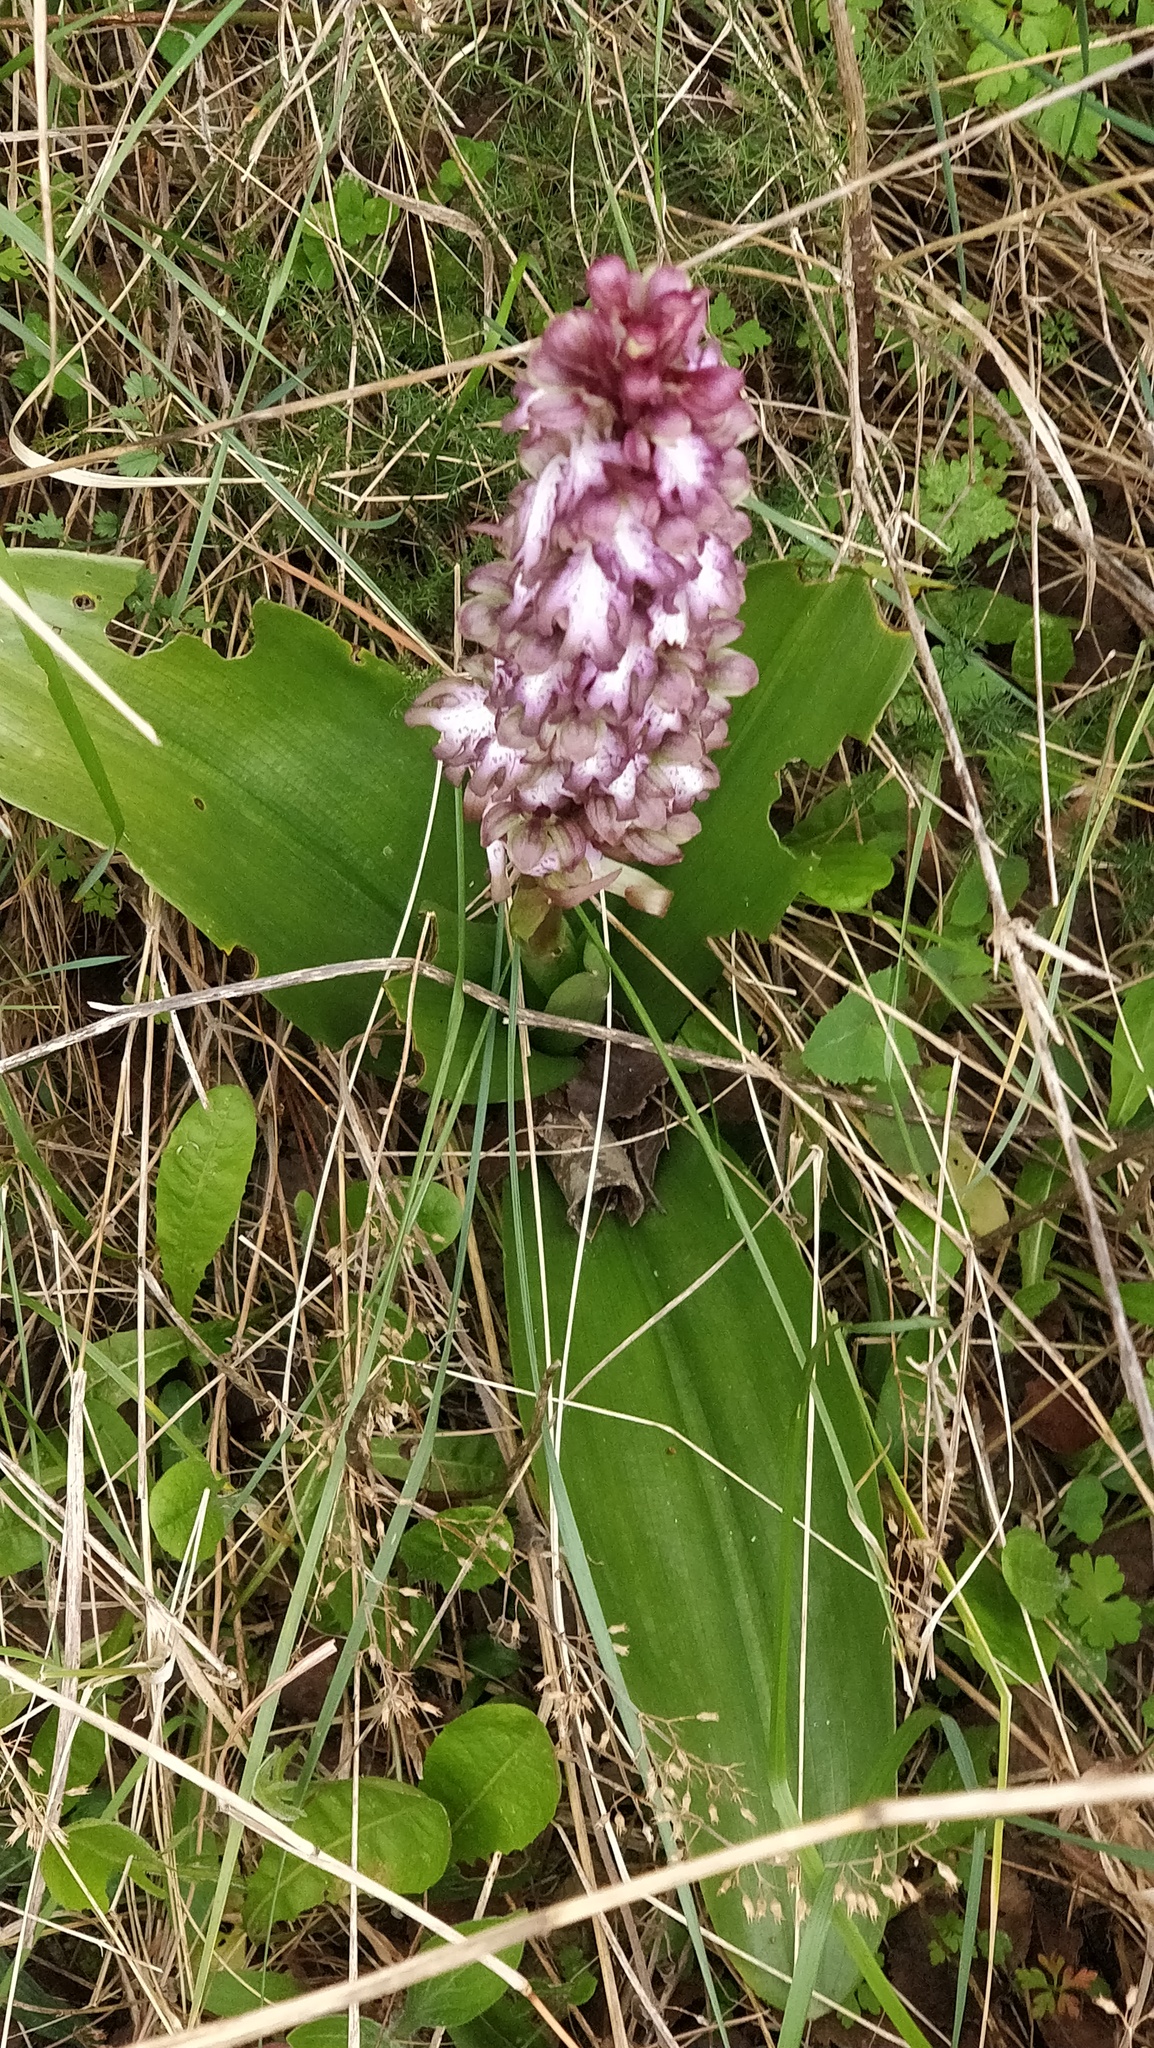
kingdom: Plantae
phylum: Tracheophyta
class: Liliopsida
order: Asparagales
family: Orchidaceae
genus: Himantoglossum
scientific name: Himantoglossum robertianum
